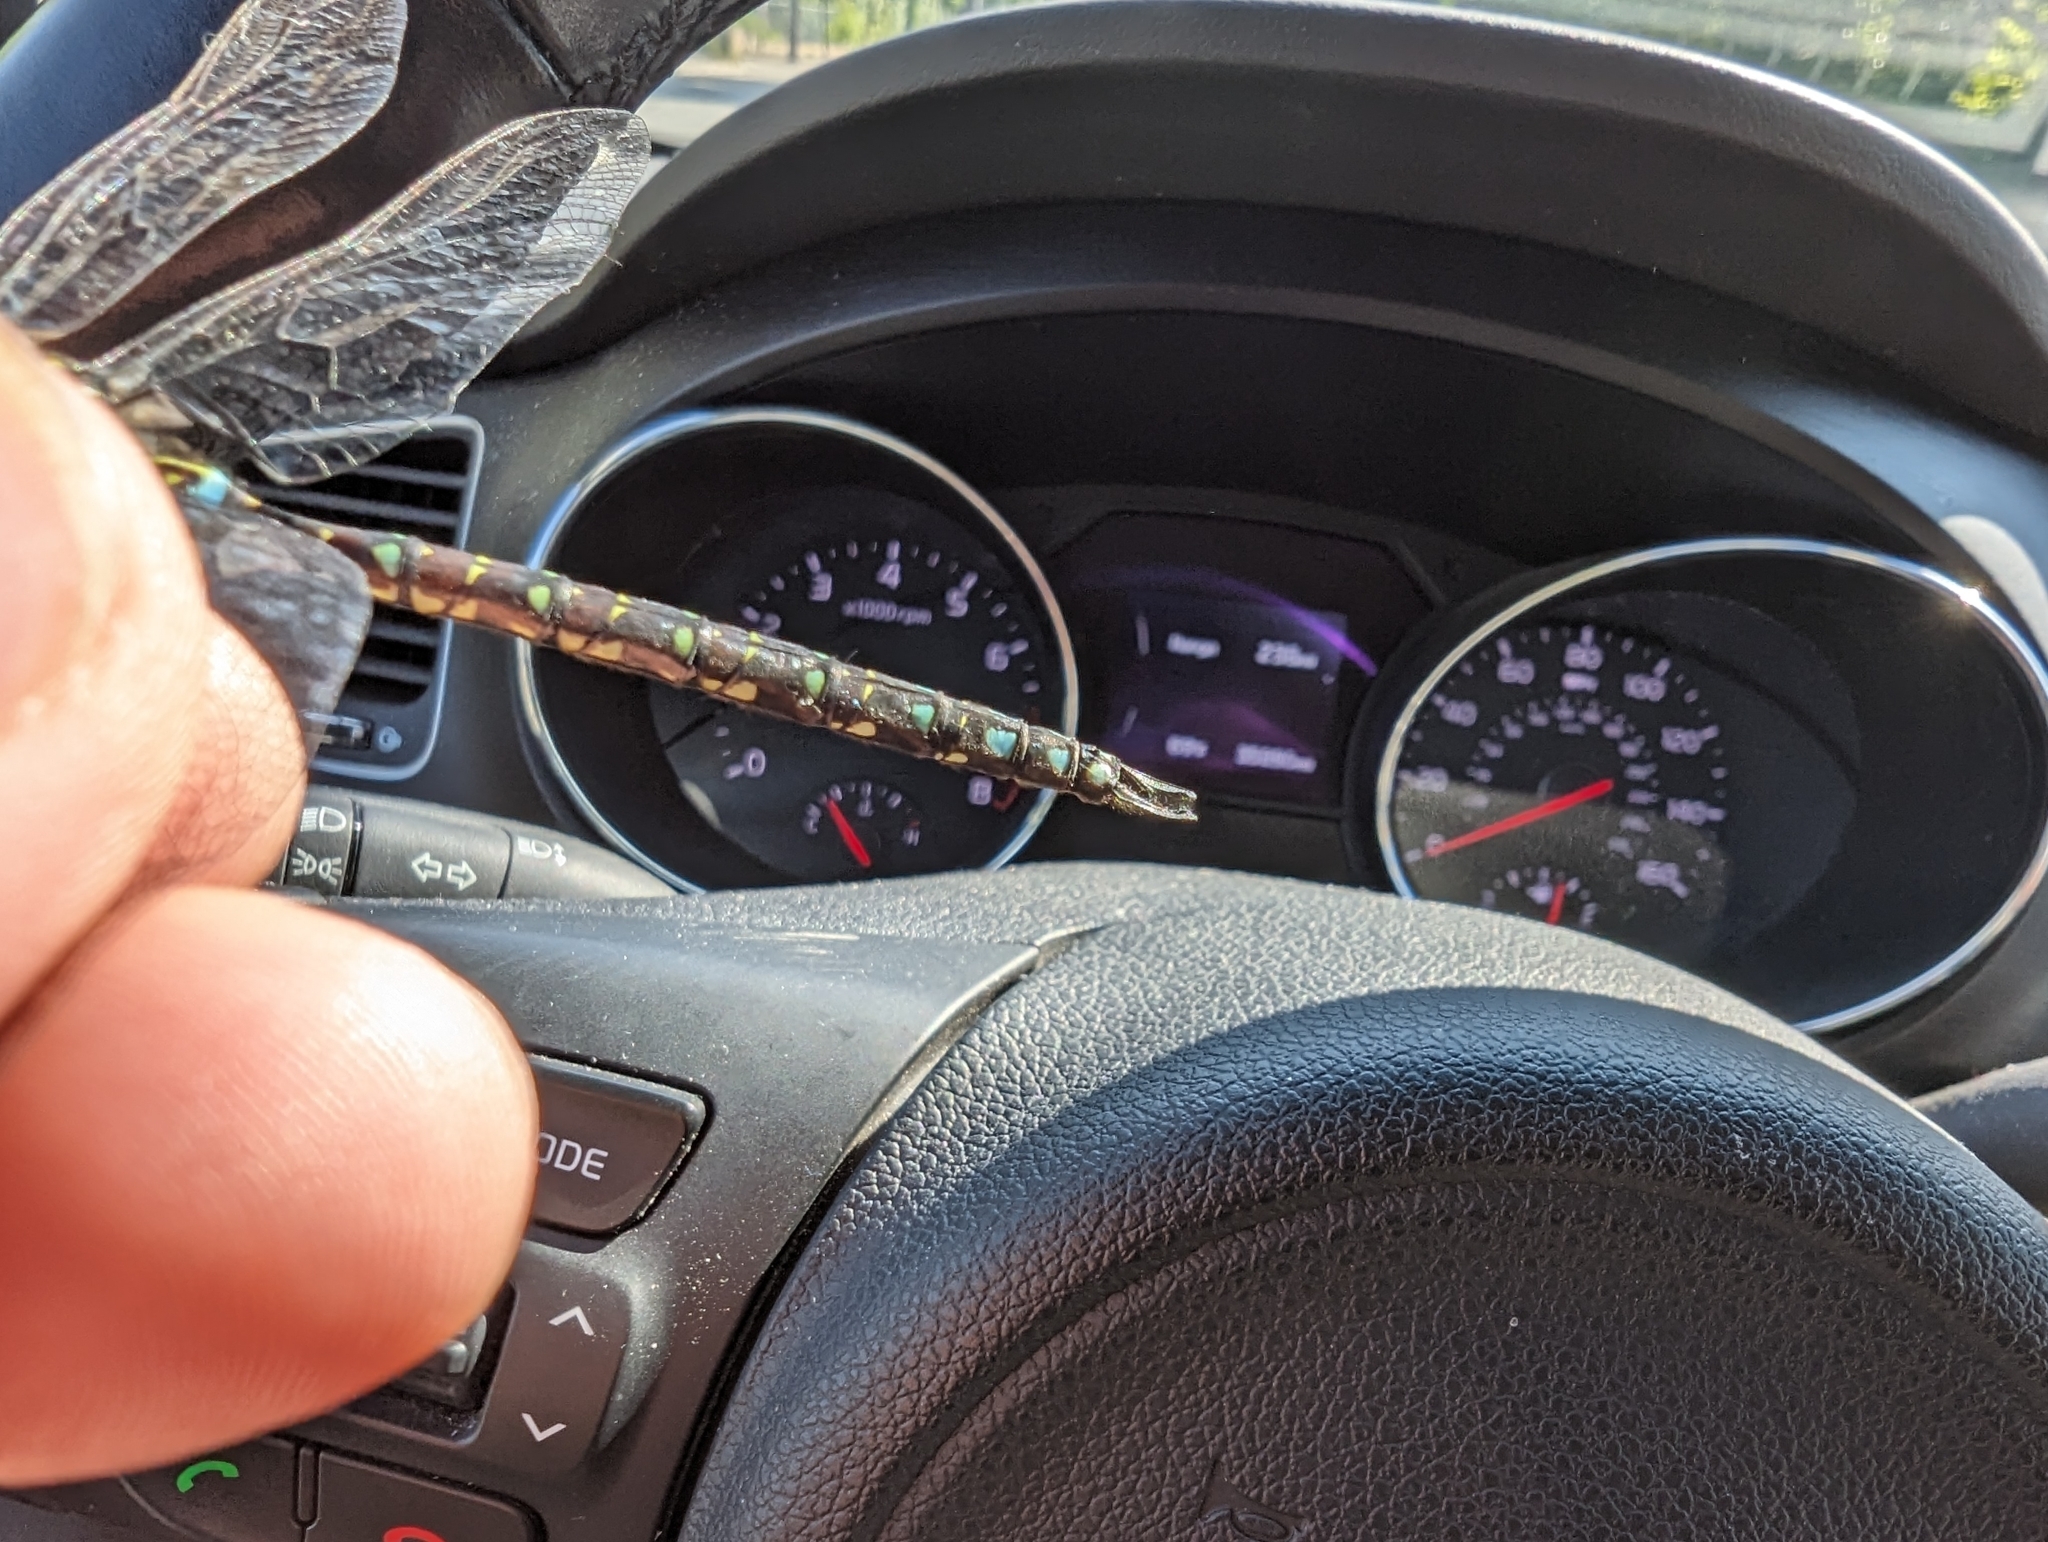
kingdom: Animalia
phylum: Arthropoda
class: Insecta
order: Odonata
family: Aeshnidae
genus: Aeshna
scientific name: Aeshna juncea
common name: Moorland hawker
